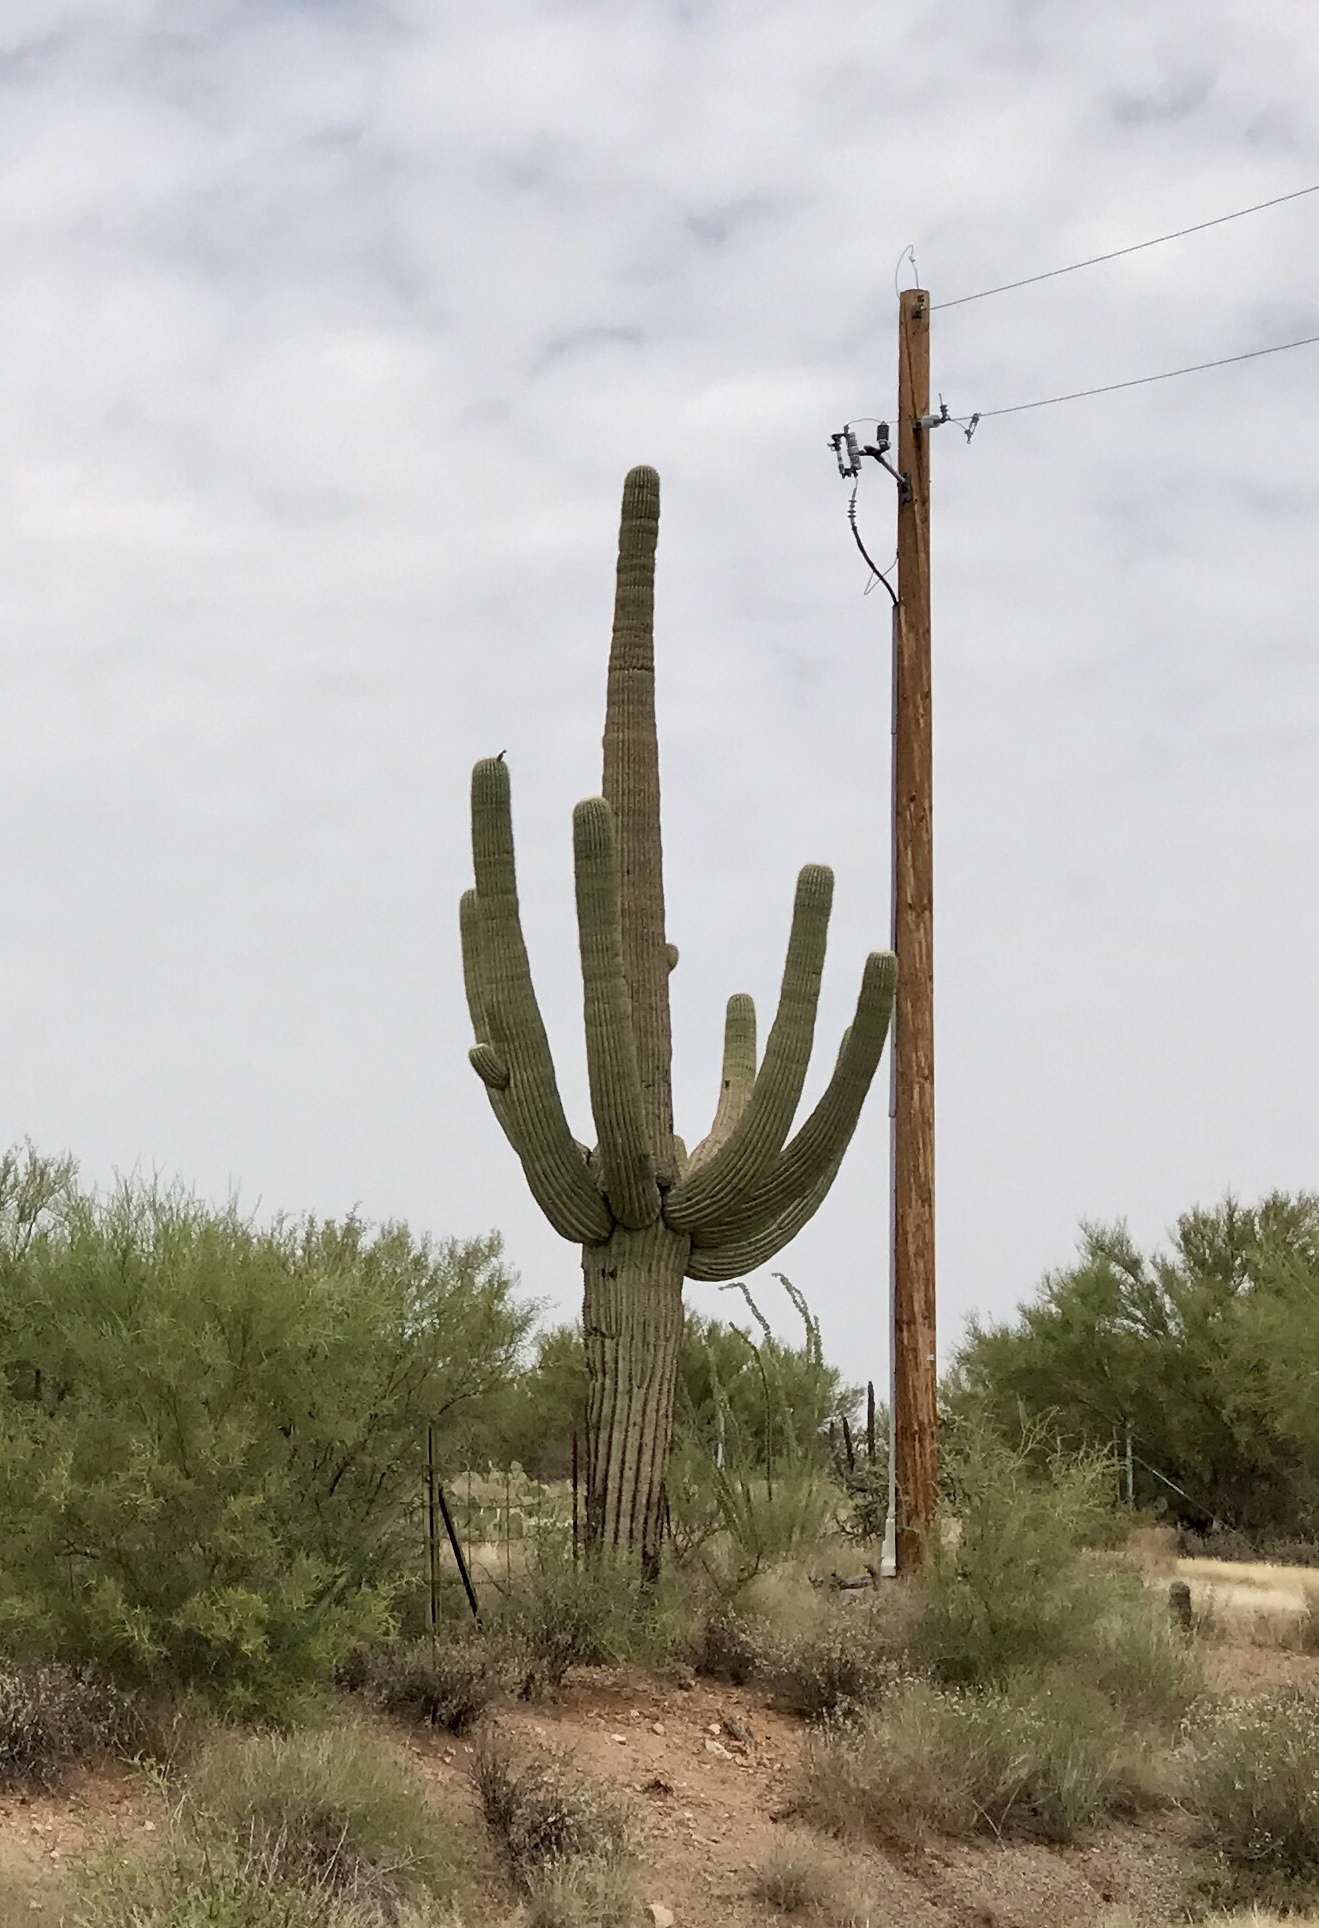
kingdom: Plantae
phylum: Tracheophyta
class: Magnoliopsida
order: Caryophyllales
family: Cactaceae
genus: Carnegiea
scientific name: Carnegiea gigantea
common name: Saguaro
